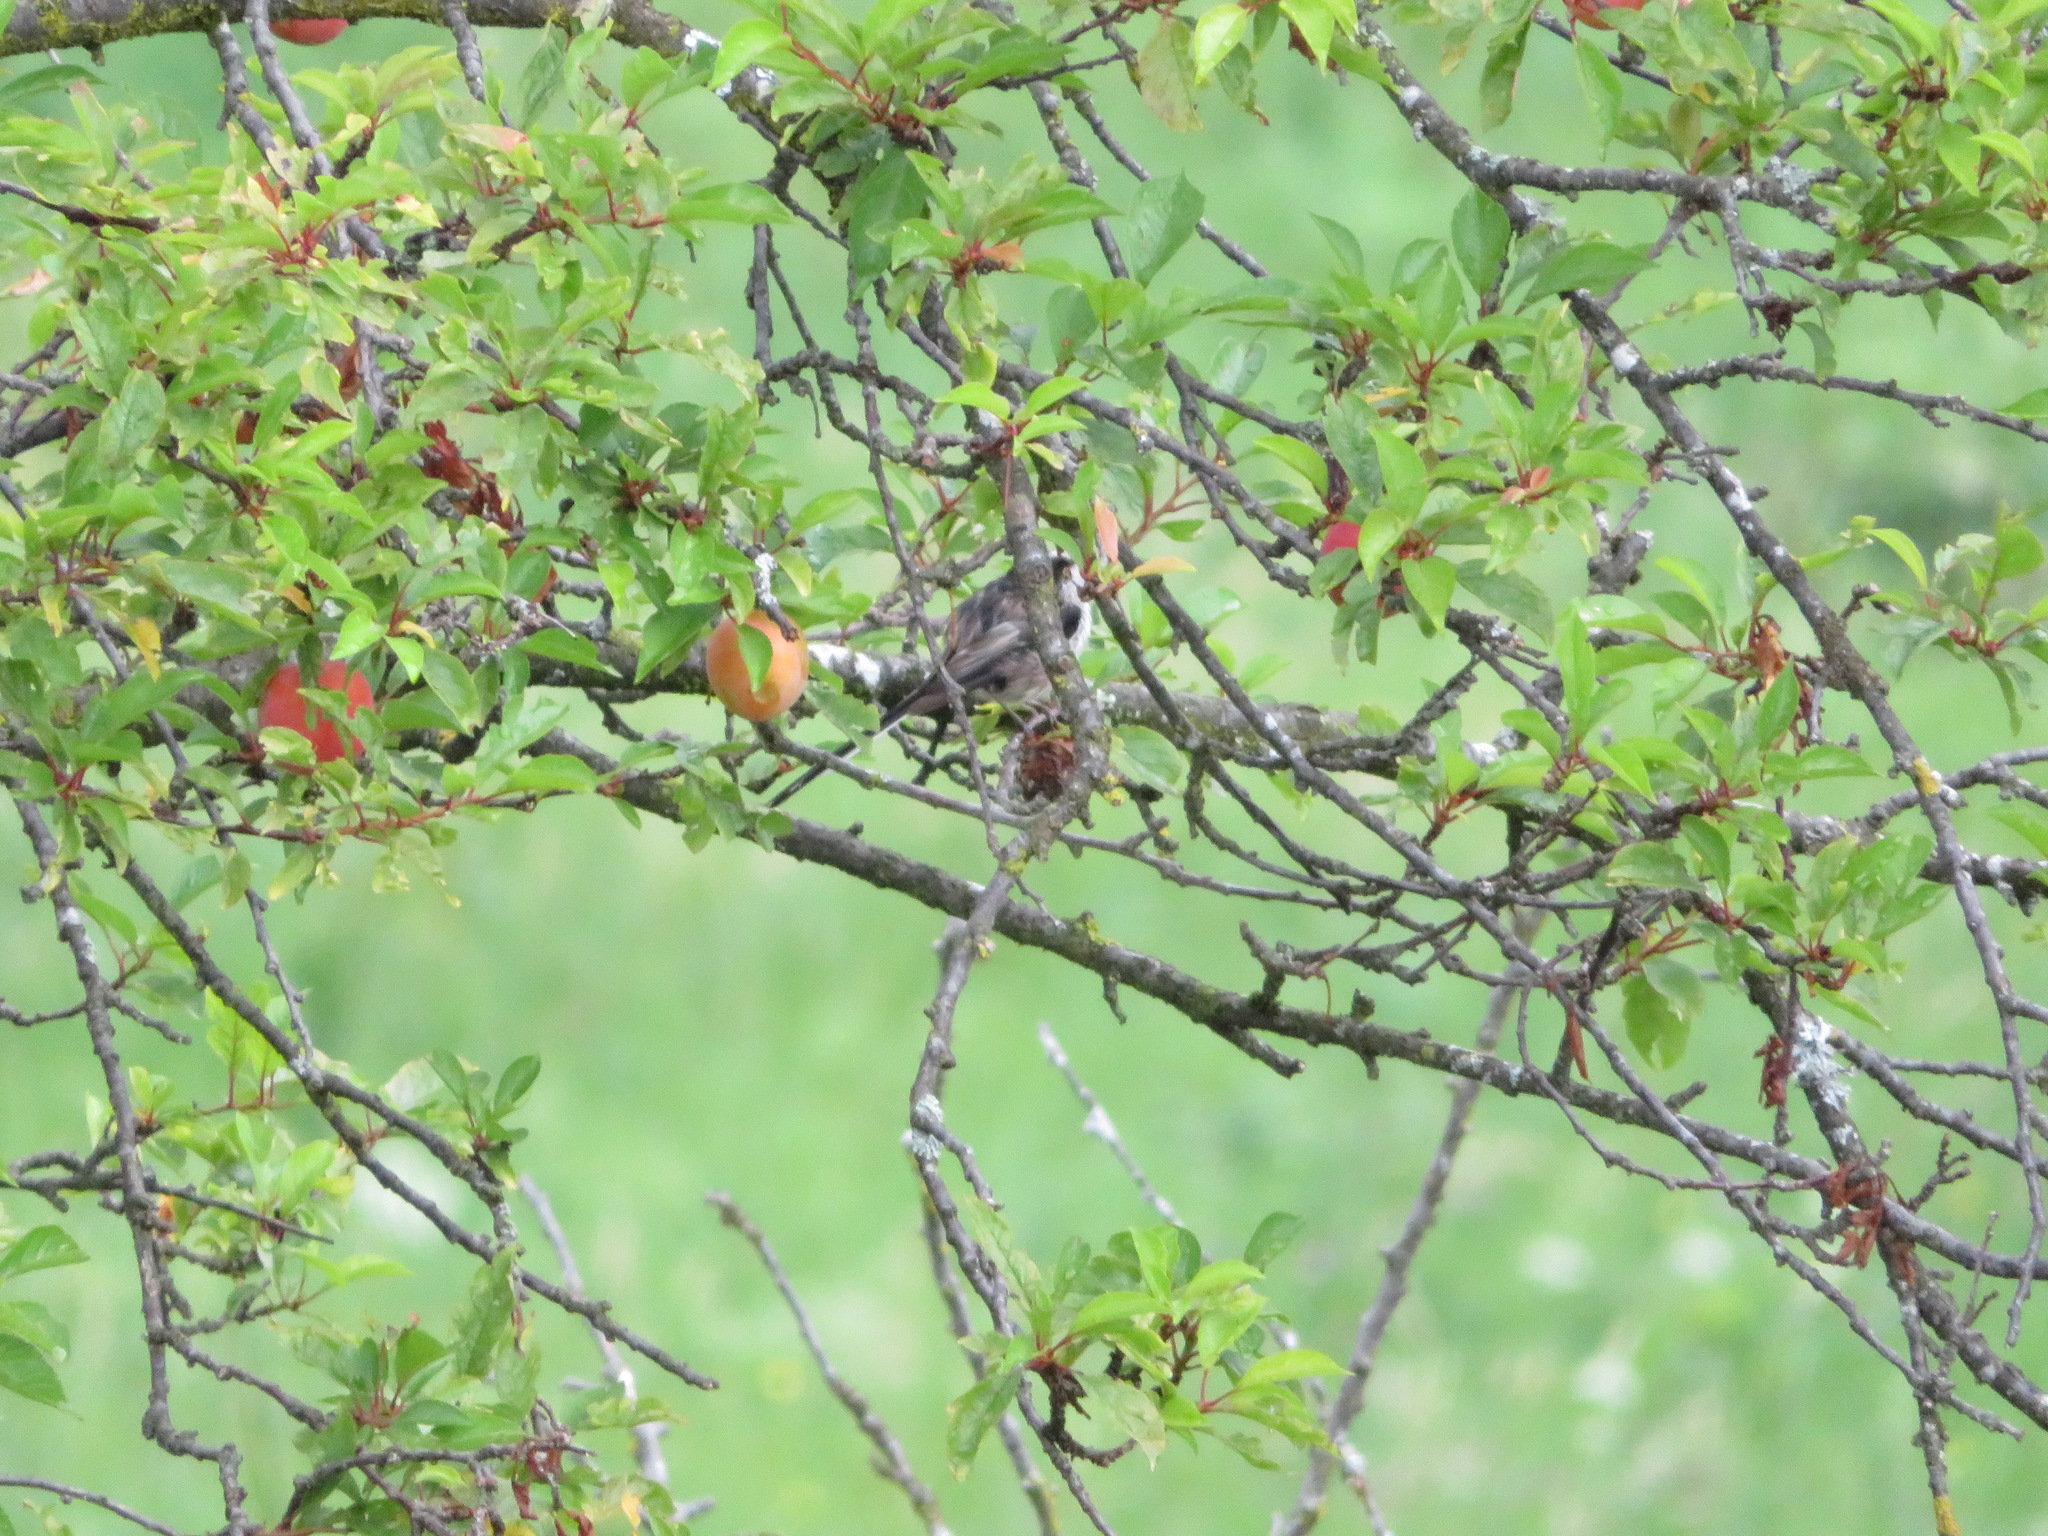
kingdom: Animalia
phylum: Chordata
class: Aves
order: Passeriformes
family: Aegithalidae
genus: Aegithalos
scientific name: Aegithalos caudatus
